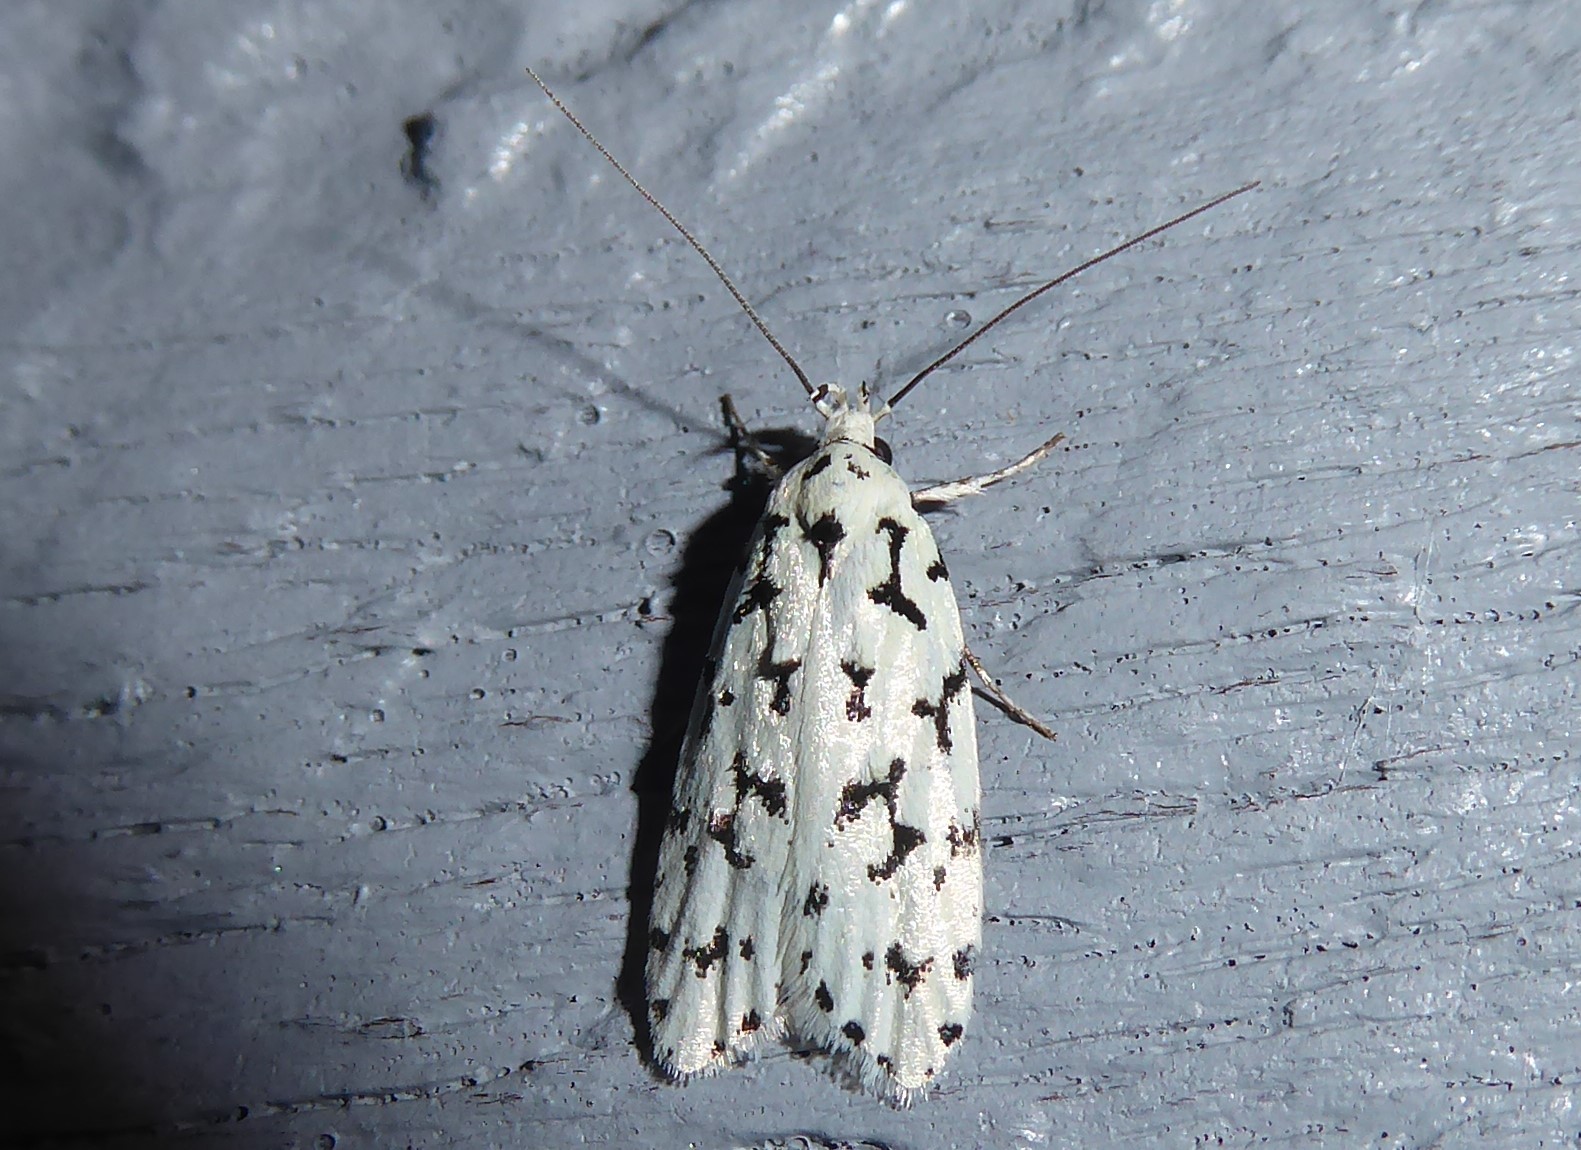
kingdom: Animalia
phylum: Arthropoda
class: Insecta
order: Lepidoptera
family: Oecophoridae
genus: Izatha
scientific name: Izatha huttoni
